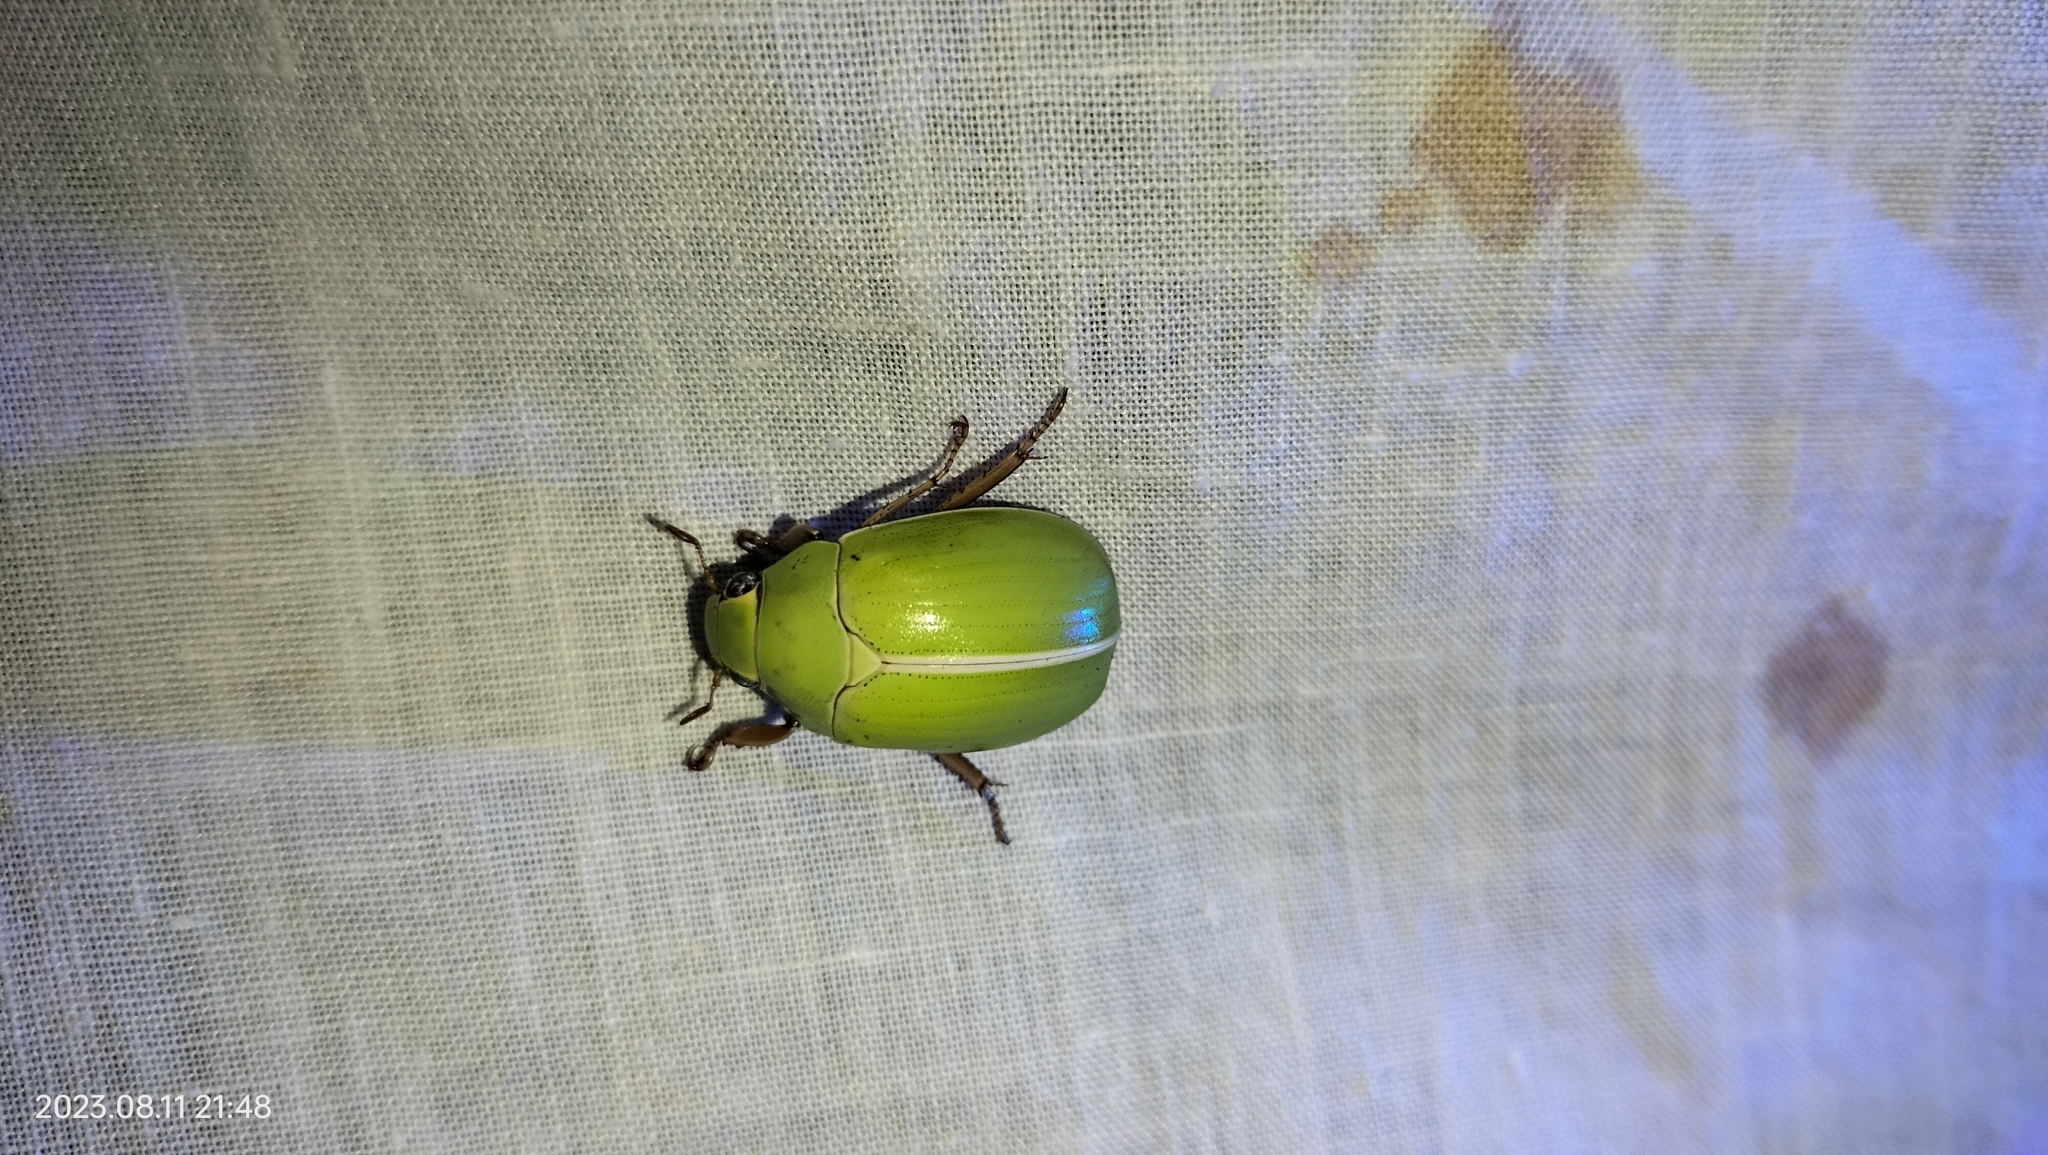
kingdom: Animalia
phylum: Arthropoda
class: Insecta
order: Coleoptera
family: Scarabaeidae
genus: Pelidnota
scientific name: Pelidnota prasina
